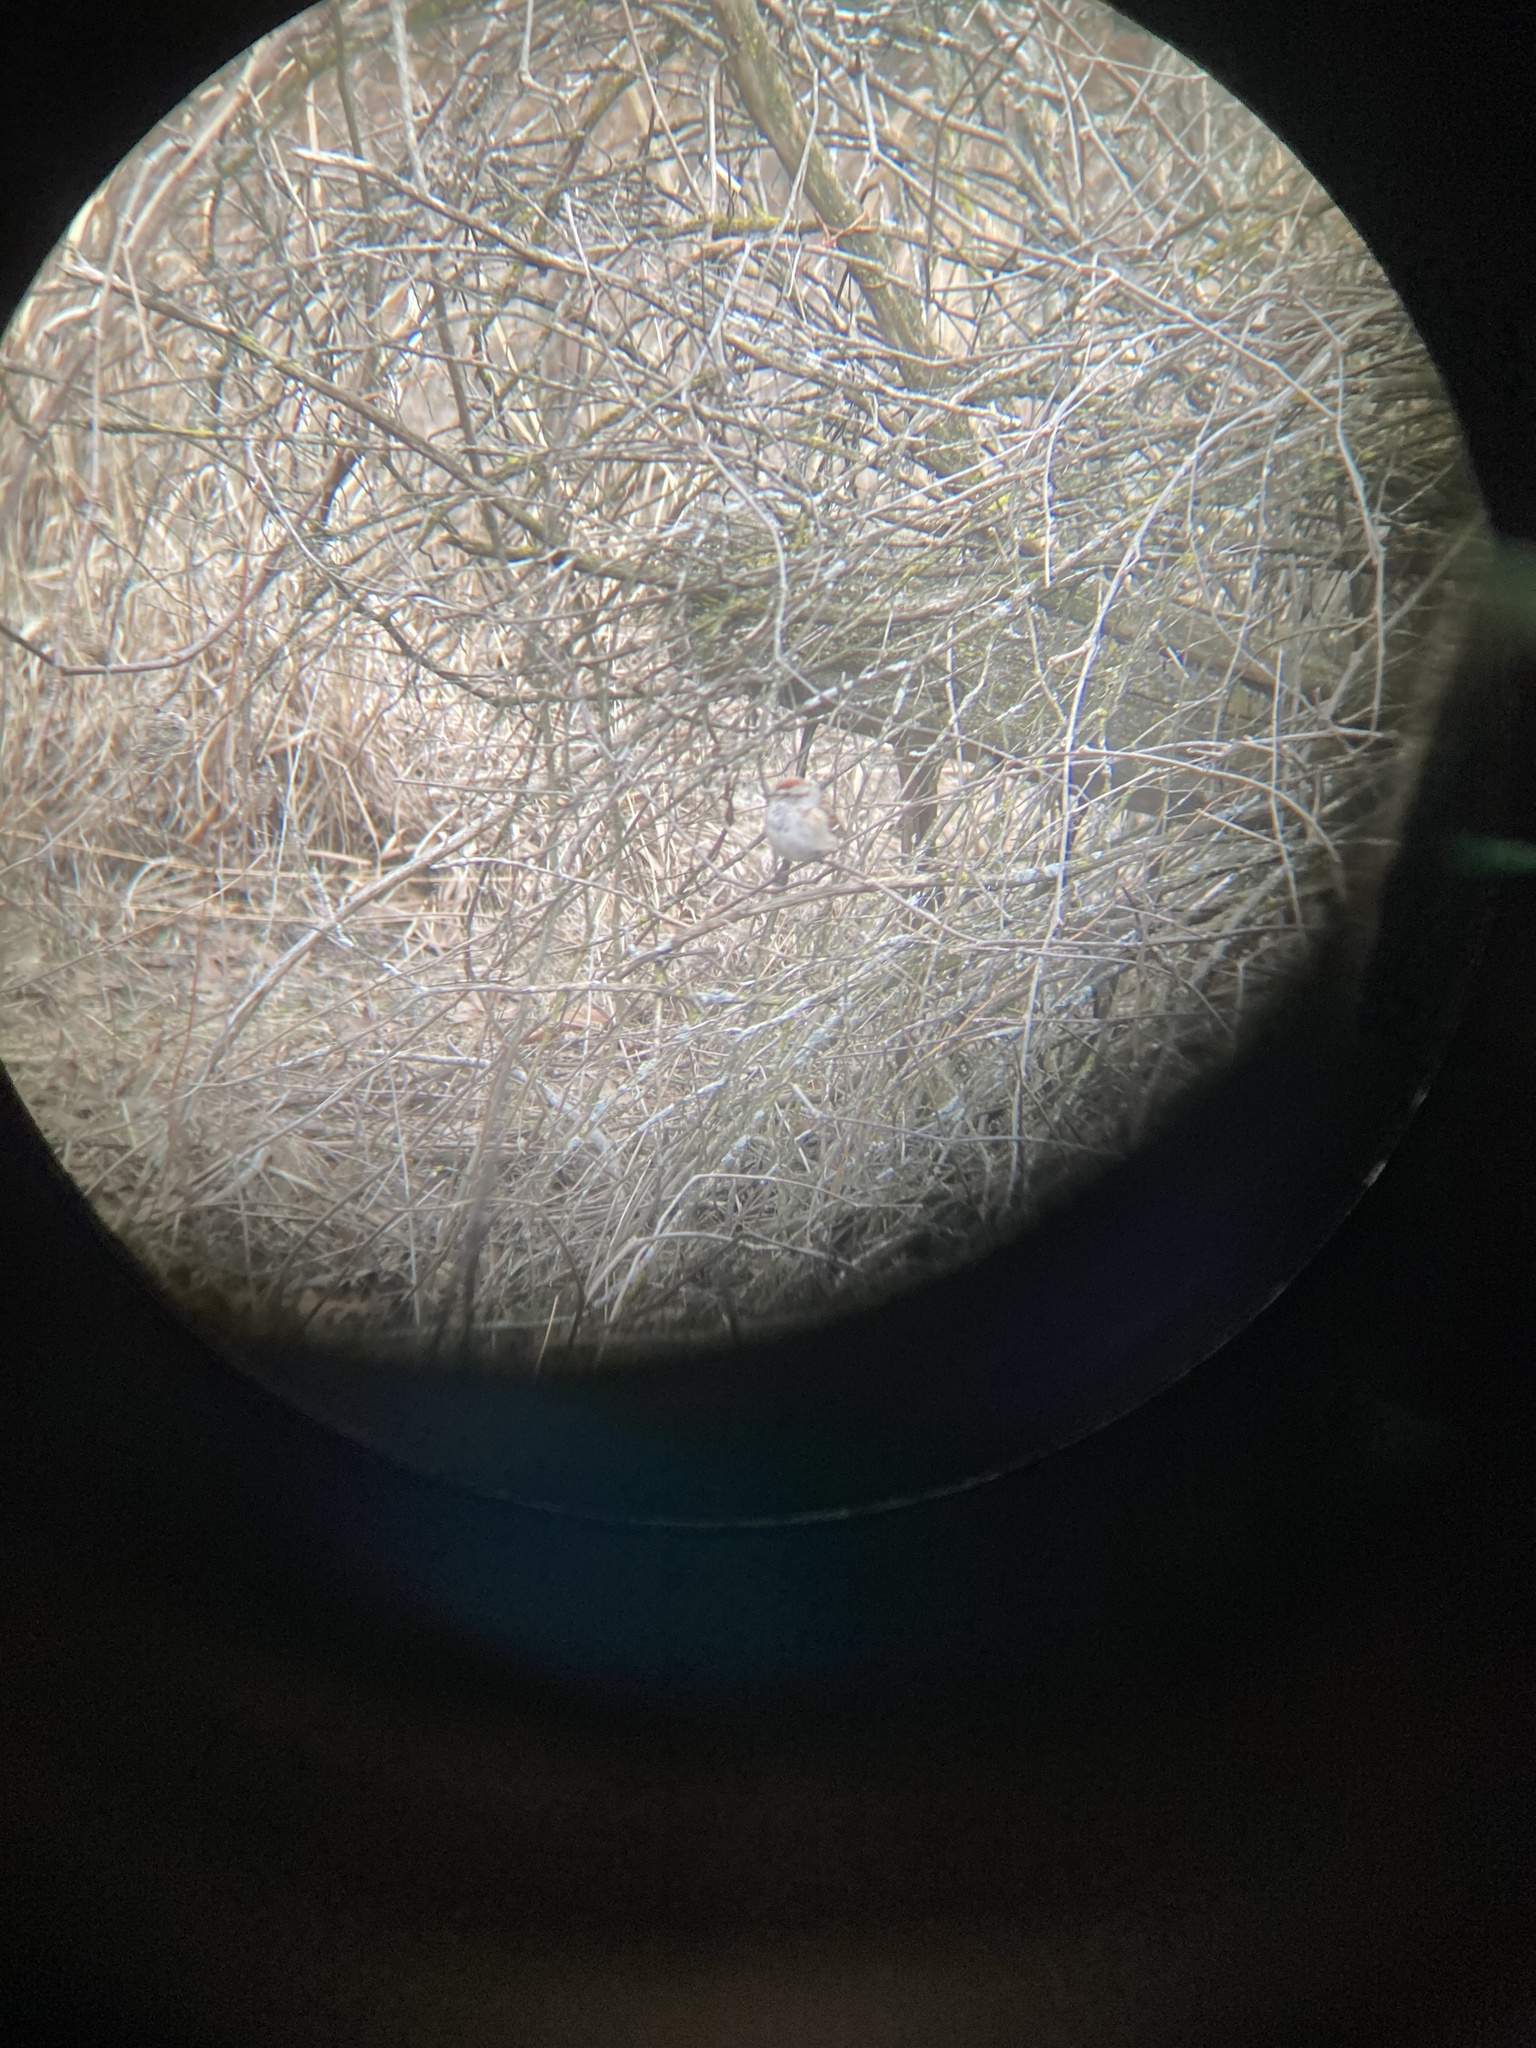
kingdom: Animalia
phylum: Chordata
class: Aves
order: Passeriformes
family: Passerellidae
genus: Spizelloides
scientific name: Spizelloides arborea
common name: American tree sparrow
